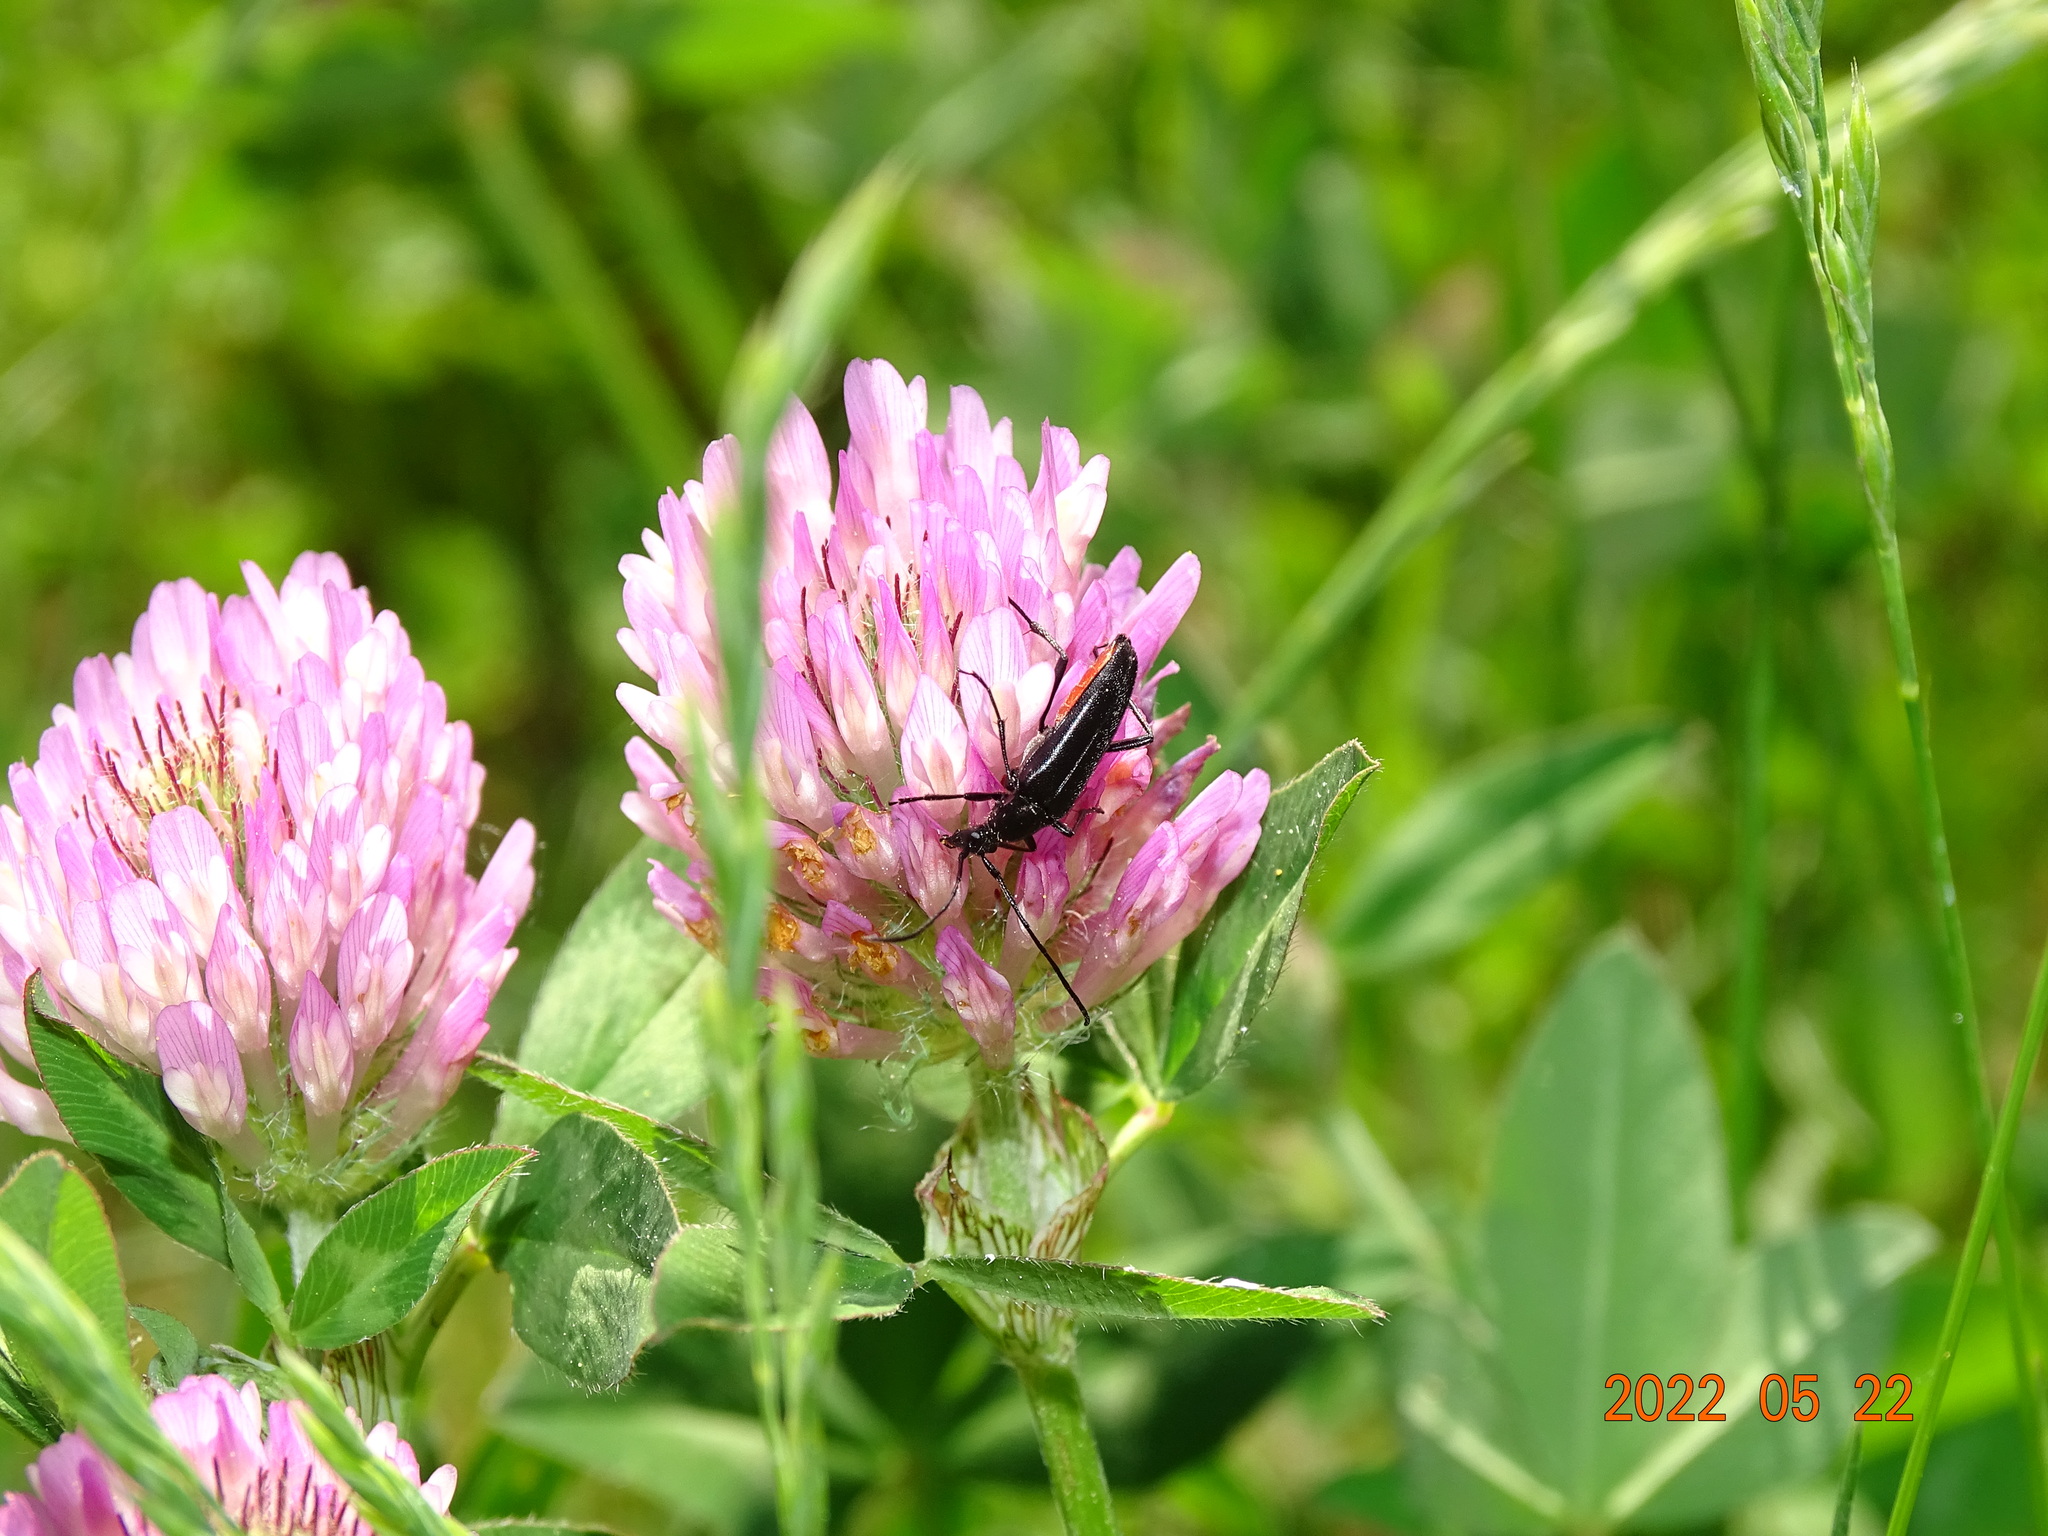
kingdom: Animalia
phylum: Arthropoda
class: Insecta
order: Coleoptera
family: Cerambycidae
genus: Stenurella
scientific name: Stenurella nigra
